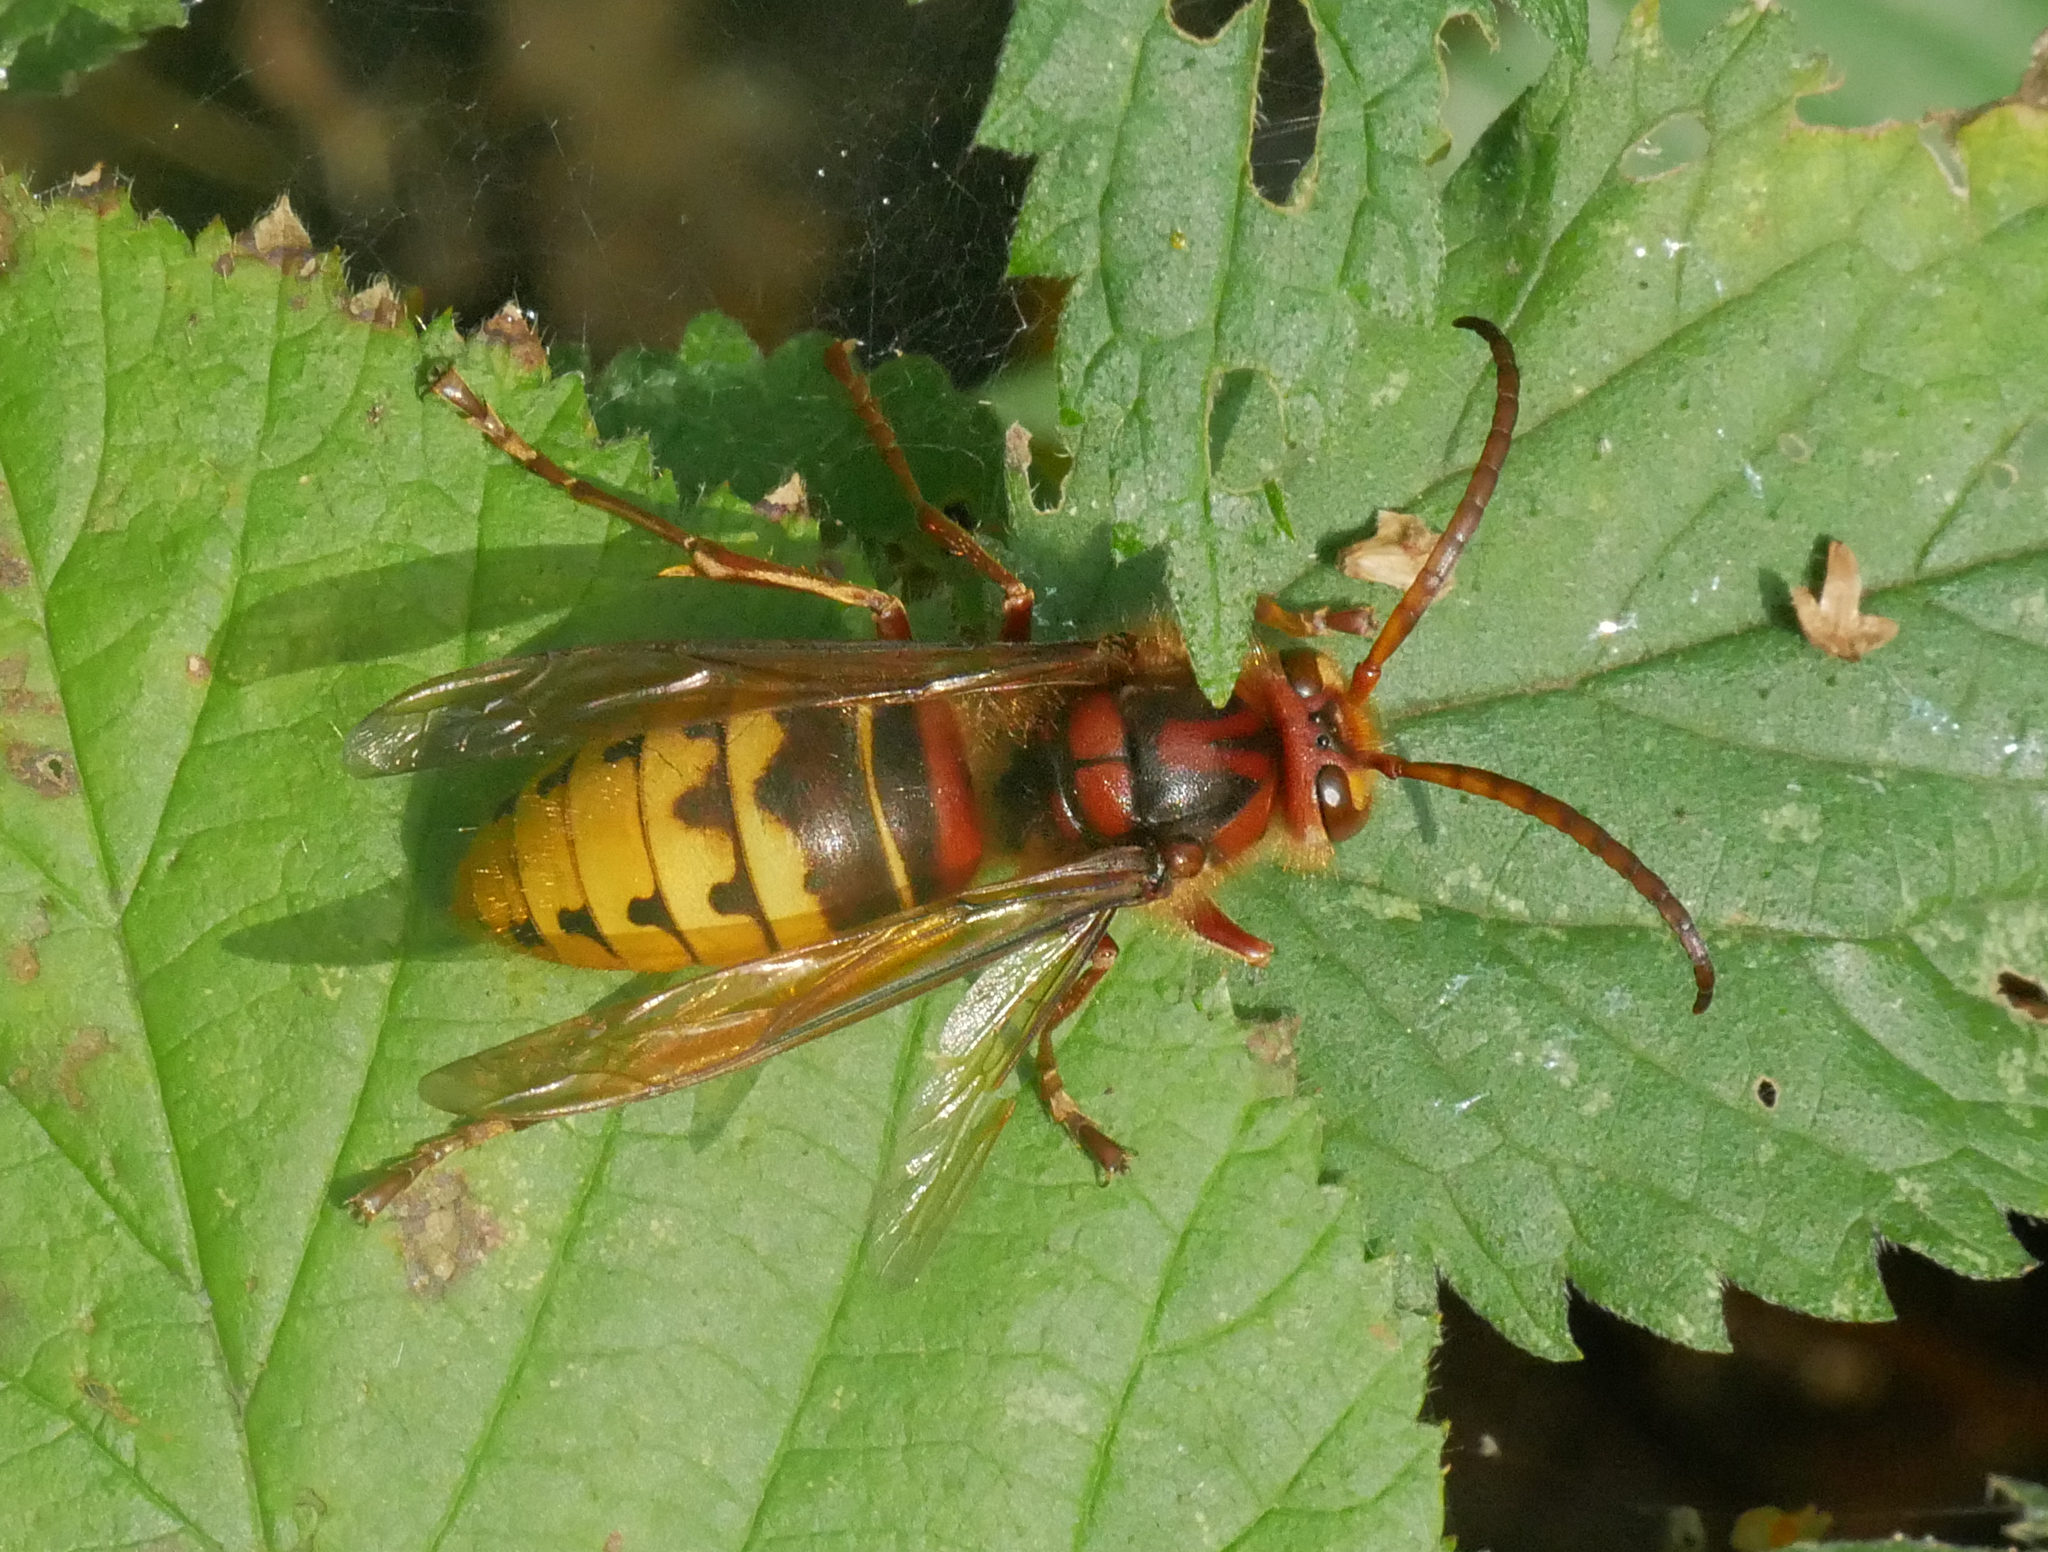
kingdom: Animalia
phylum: Arthropoda
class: Insecta
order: Hymenoptera
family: Vespidae
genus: Vespa
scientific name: Vespa crabro
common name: Hornet
